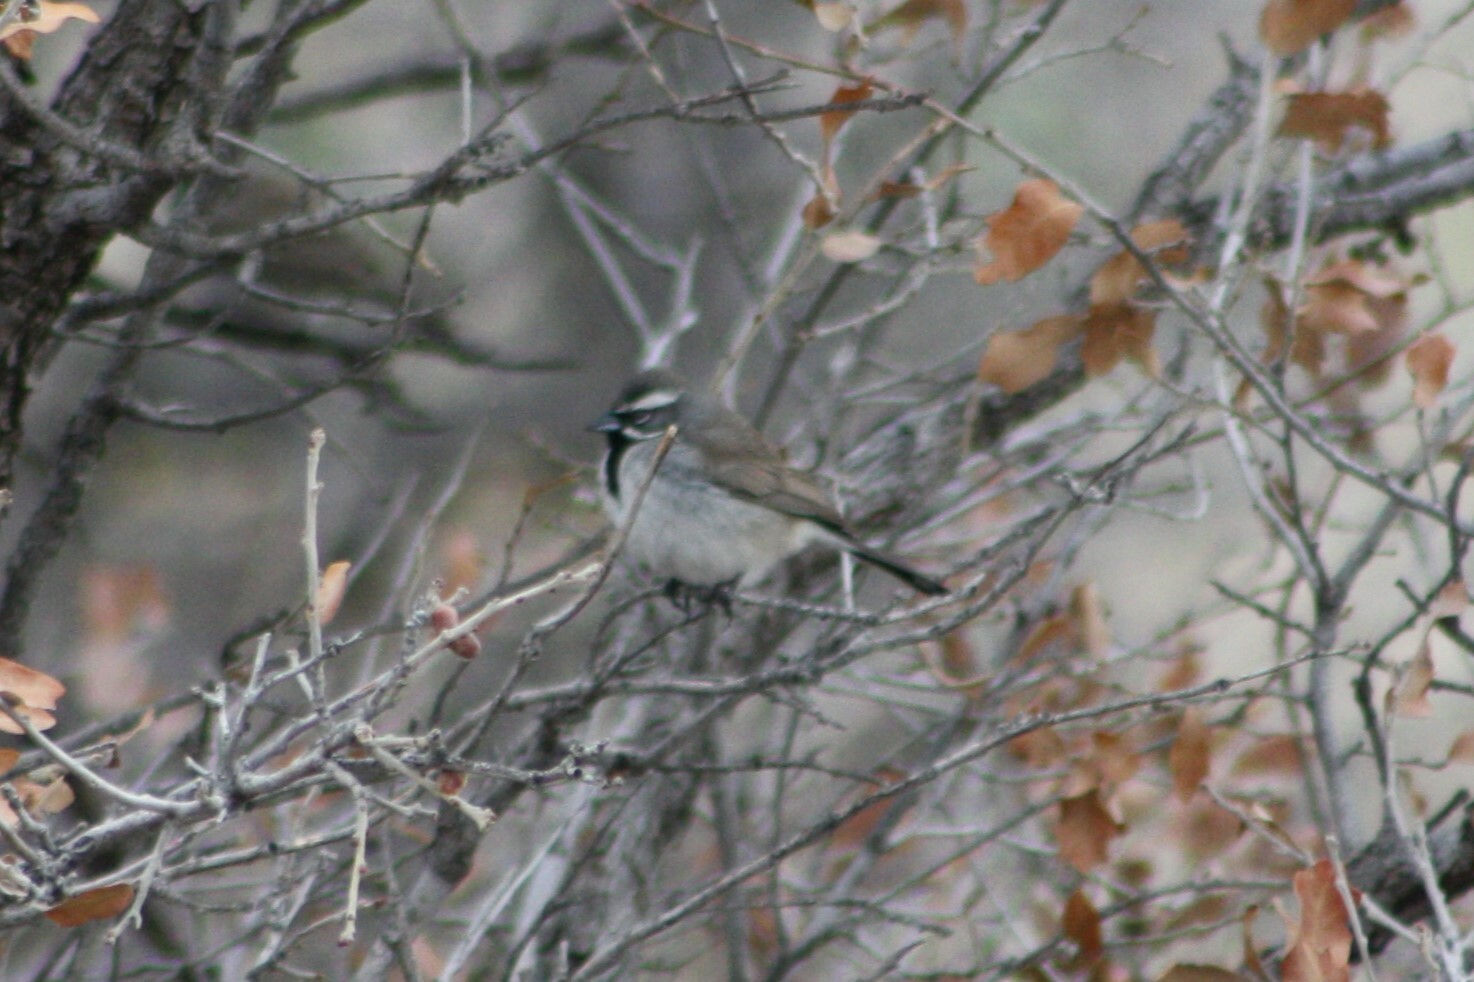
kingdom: Animalia
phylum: Chordata
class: Aves
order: Passeriformes
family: Passerellidae
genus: Amphispiza
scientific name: Amphispiza bilineata
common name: Black-throated sparrow
